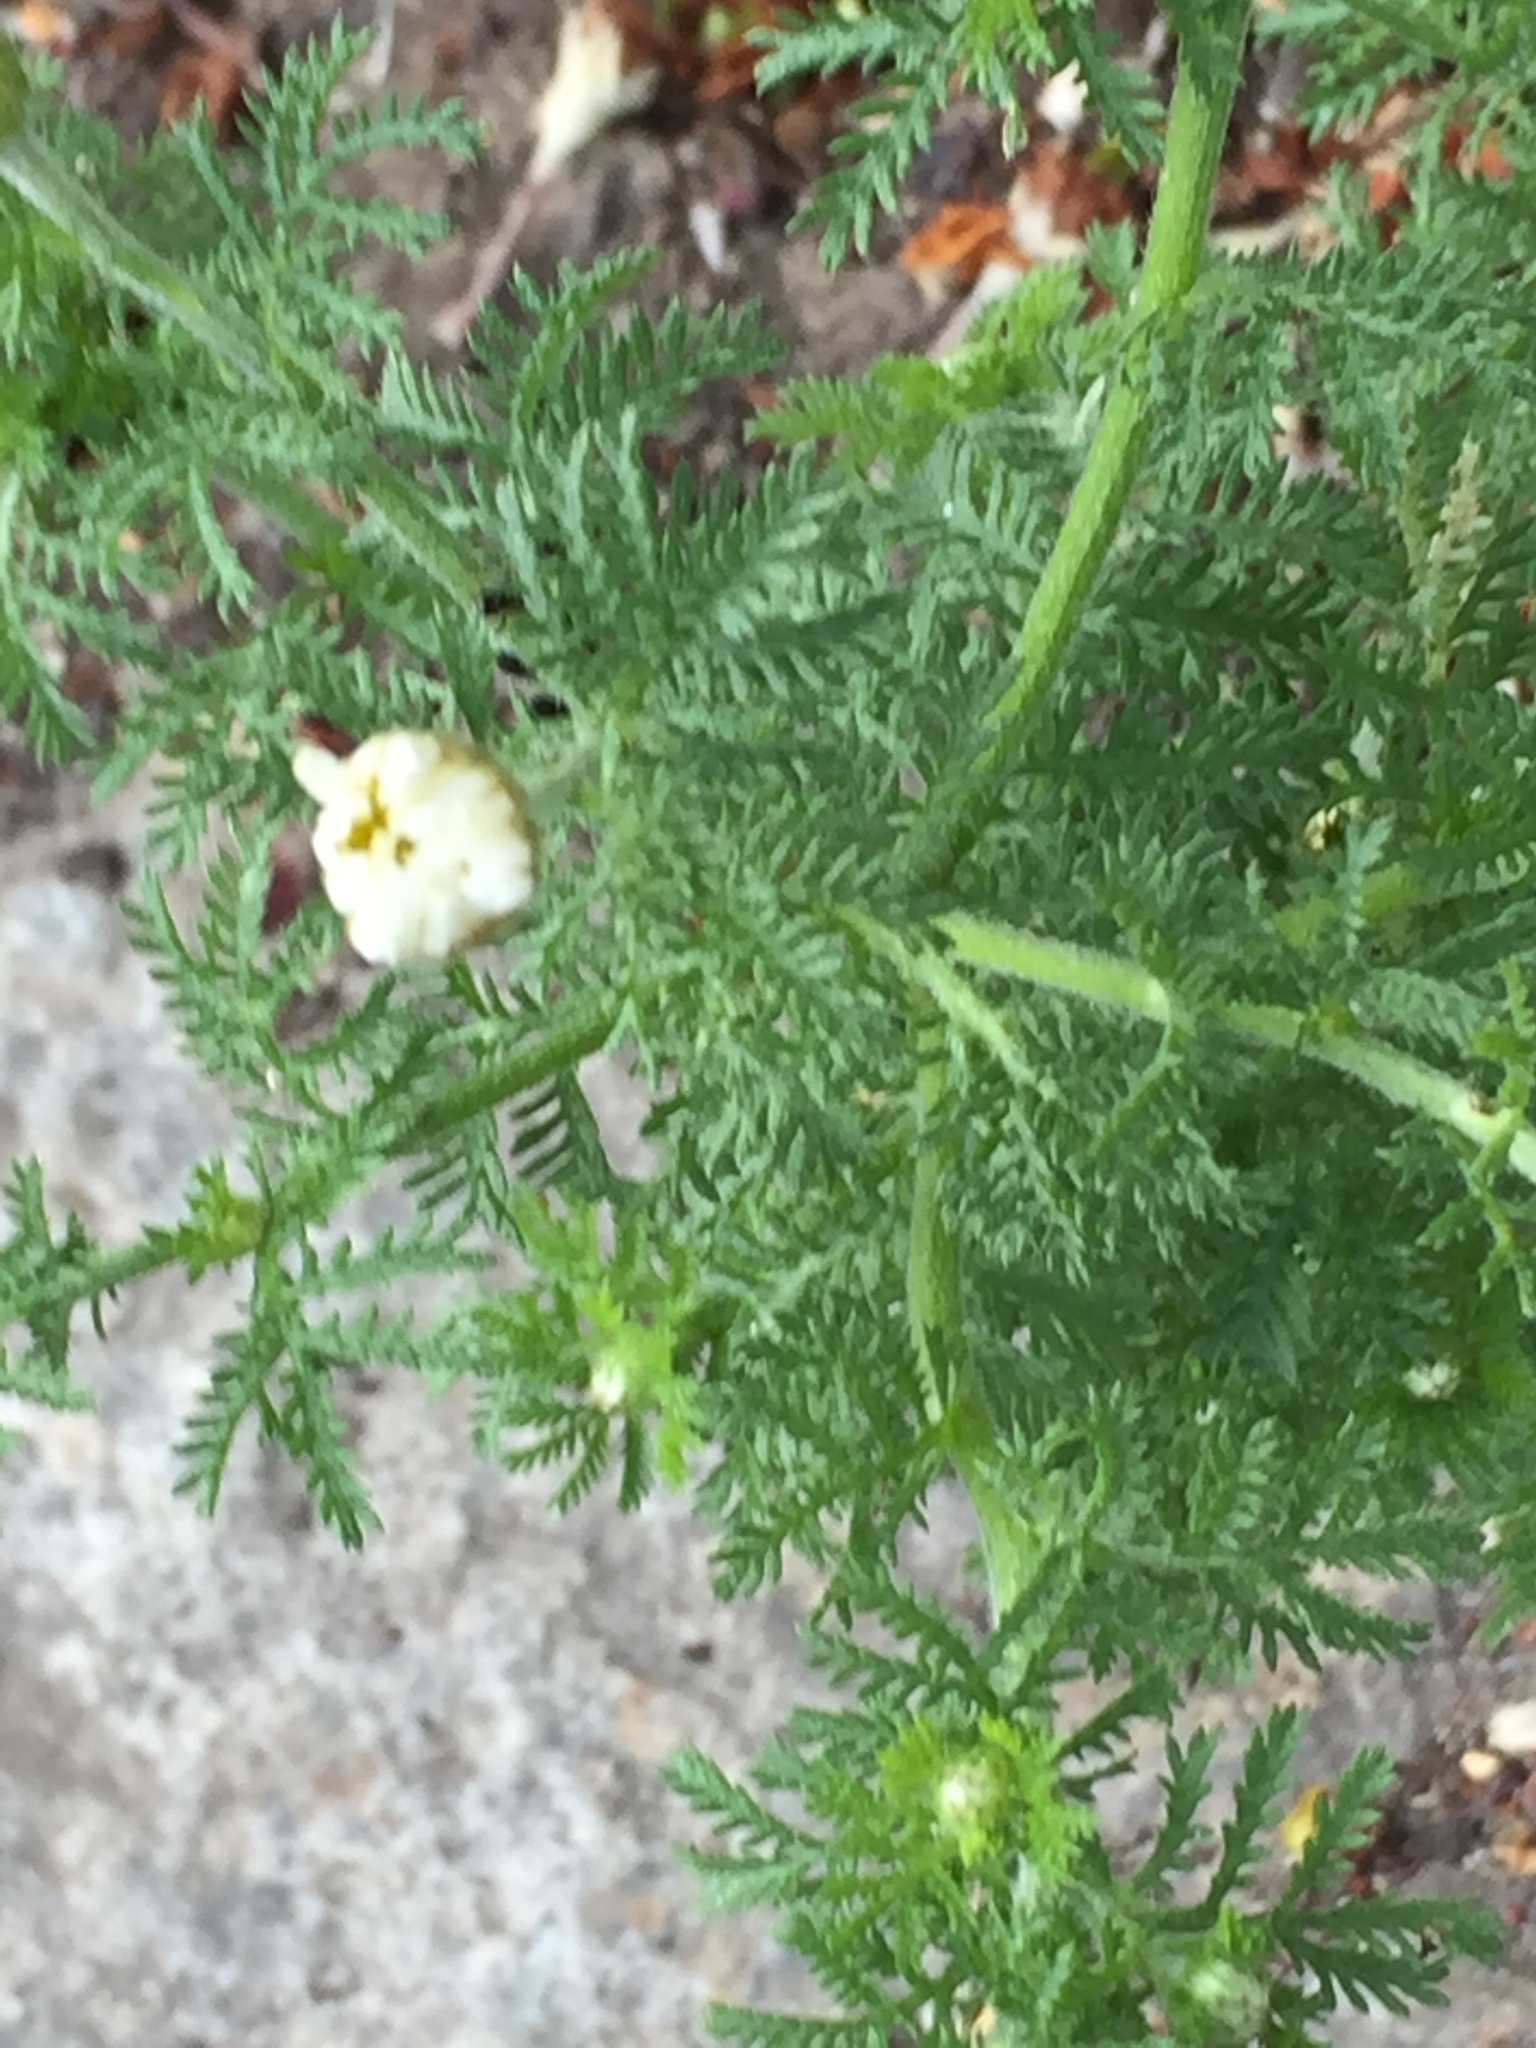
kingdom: Plantae
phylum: Tracheophyta
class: Magnoliopsida
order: Asterales
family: Asteraceae
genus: Cota
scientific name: Cota austriaca
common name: Austrian chamomile
